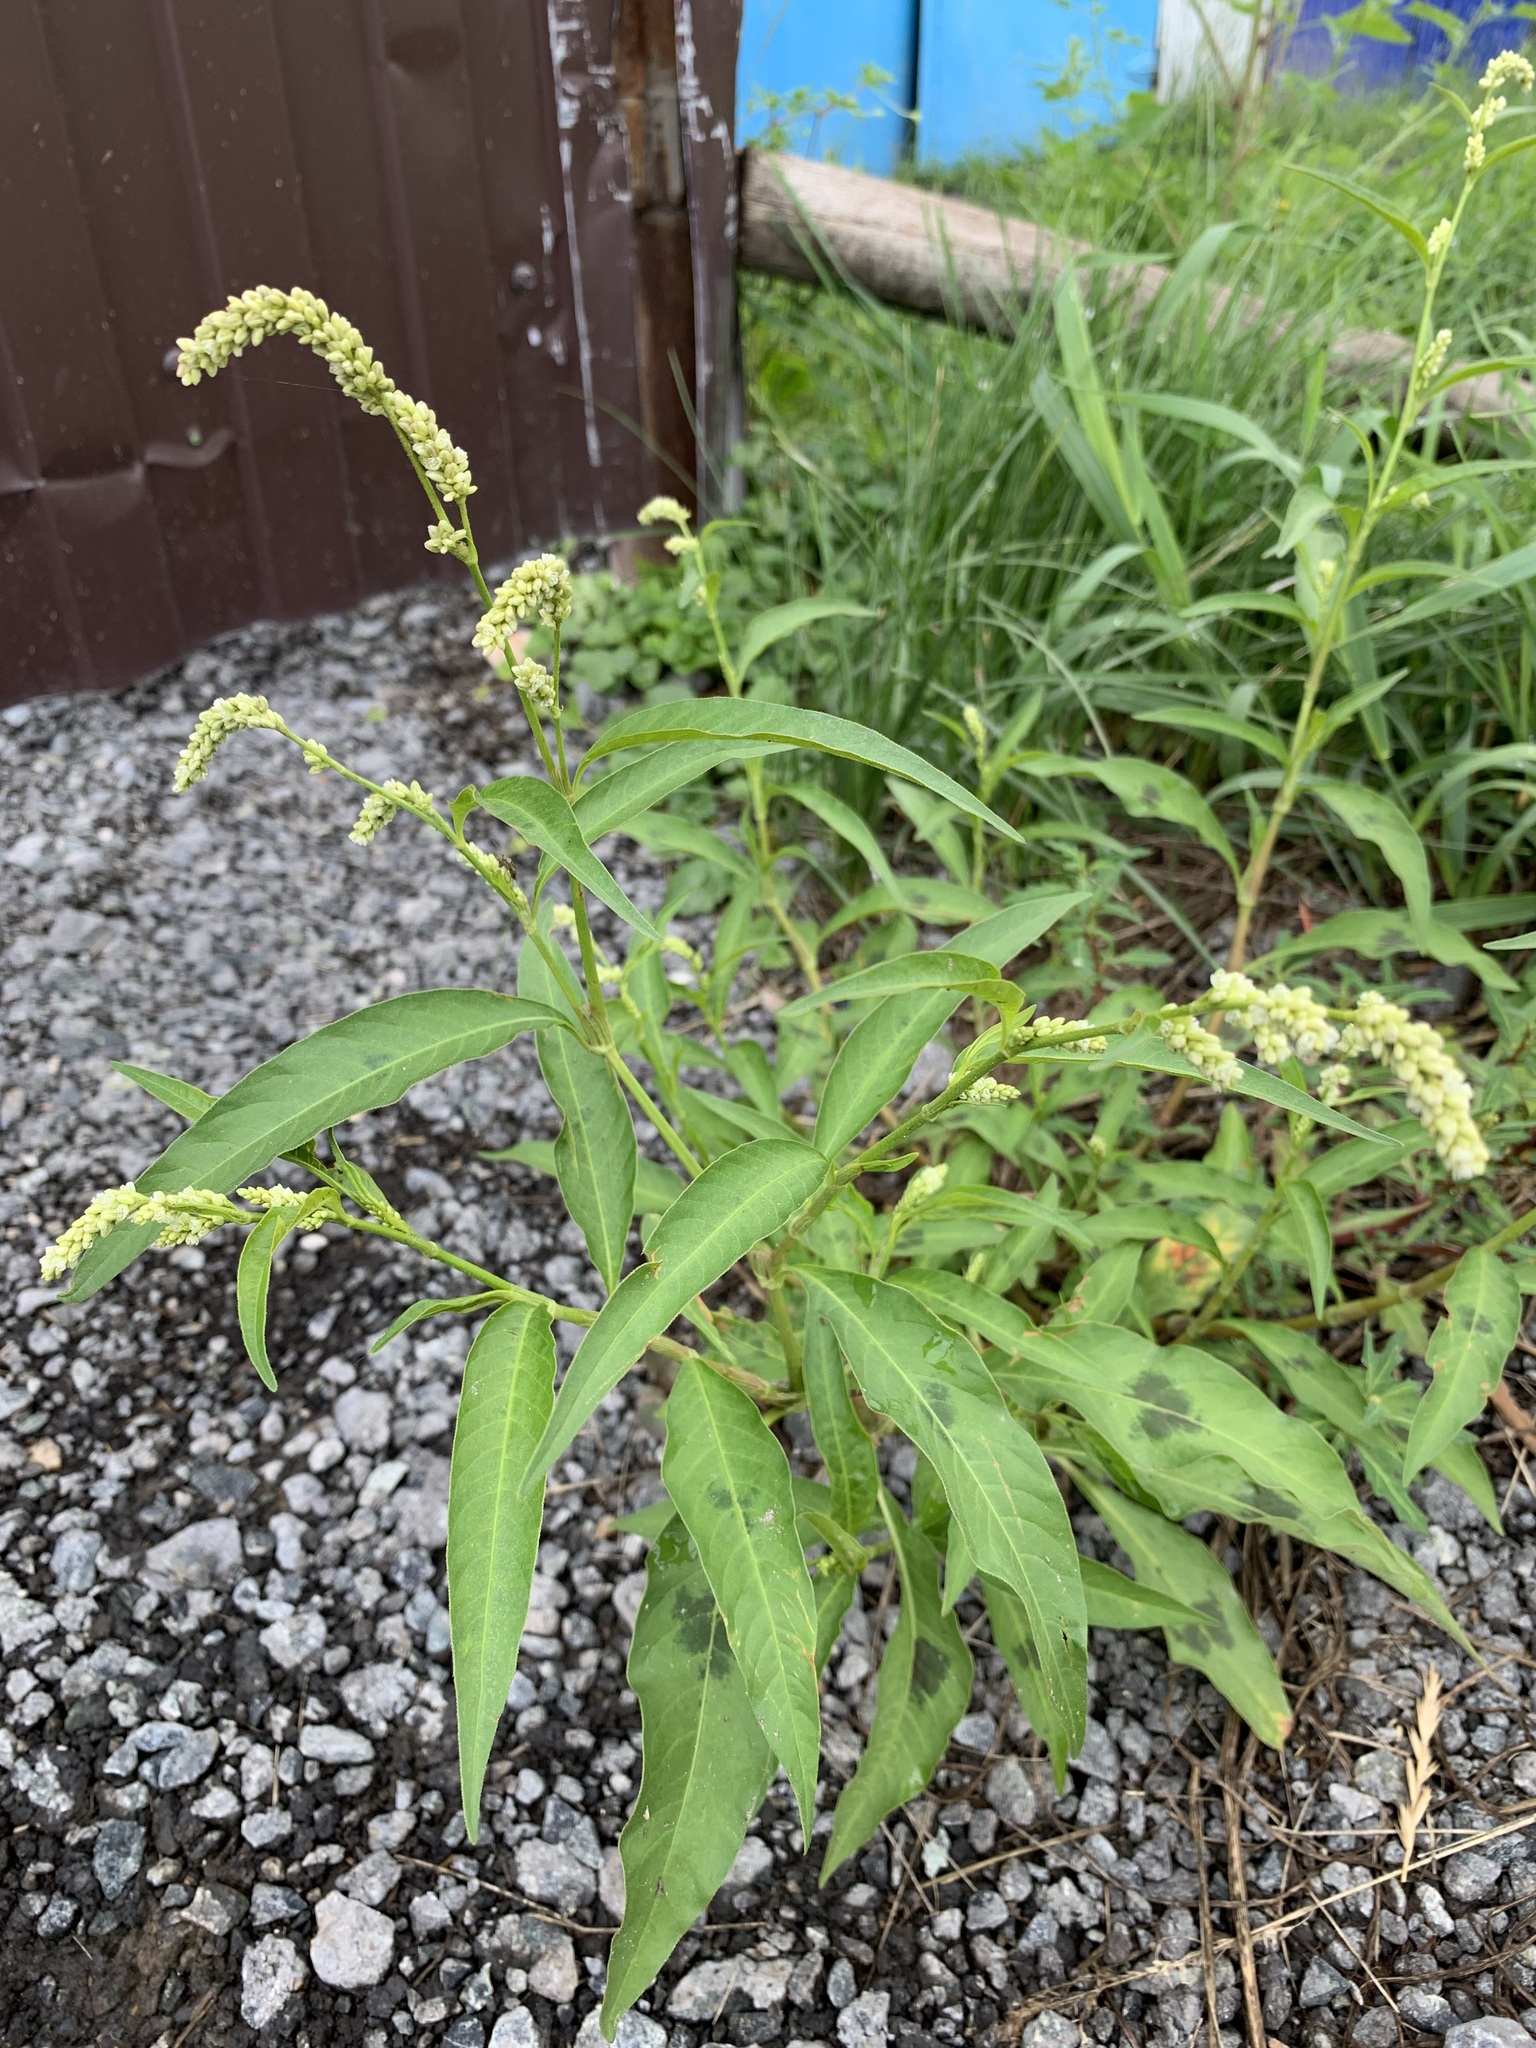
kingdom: Plantae
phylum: Tracheophyta
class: Magnoliopsida
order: Caryophyllales
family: Polygonaceae
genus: Persicaria
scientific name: Persicaria lapathifolia
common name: Curlytop knotweed
